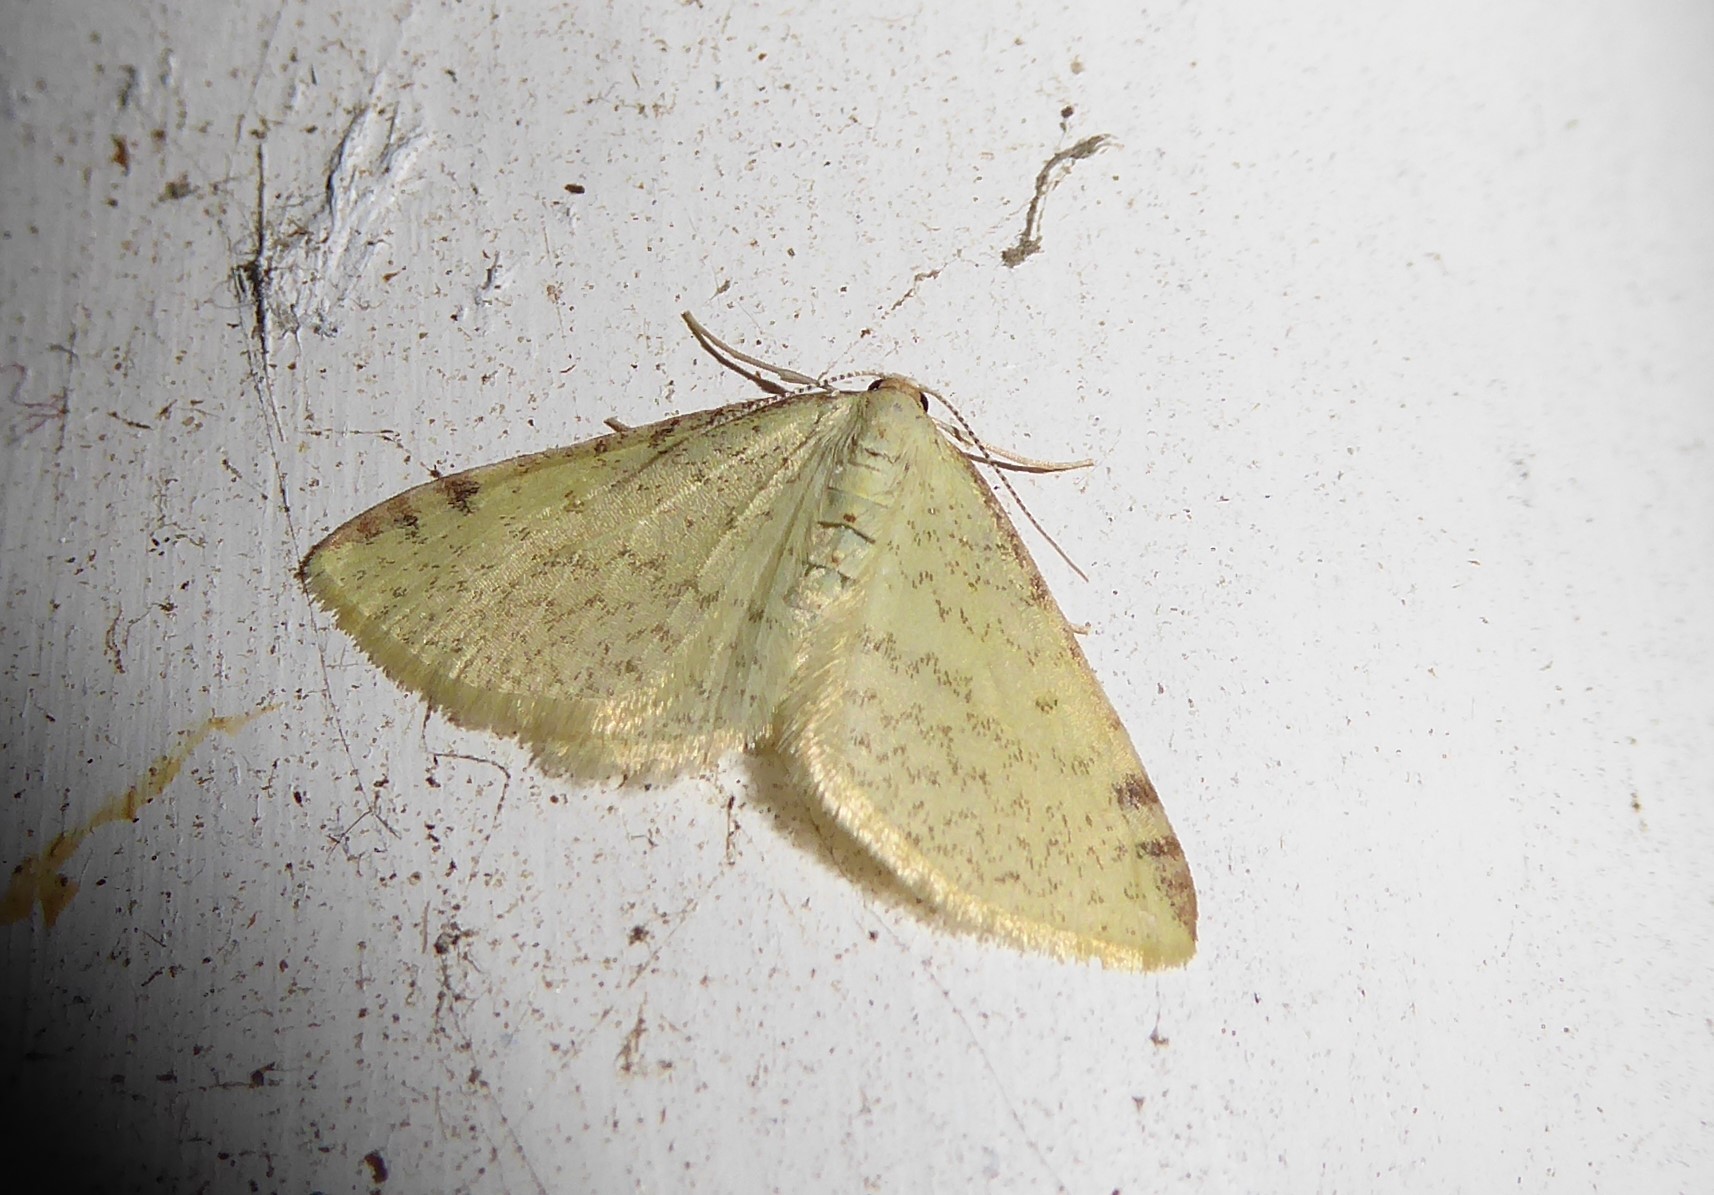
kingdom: Animalia
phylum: Arthropoda
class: Insecta
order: Lepidoptera
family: Geometridae
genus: Epiphryne
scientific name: Epiphryne undosata
